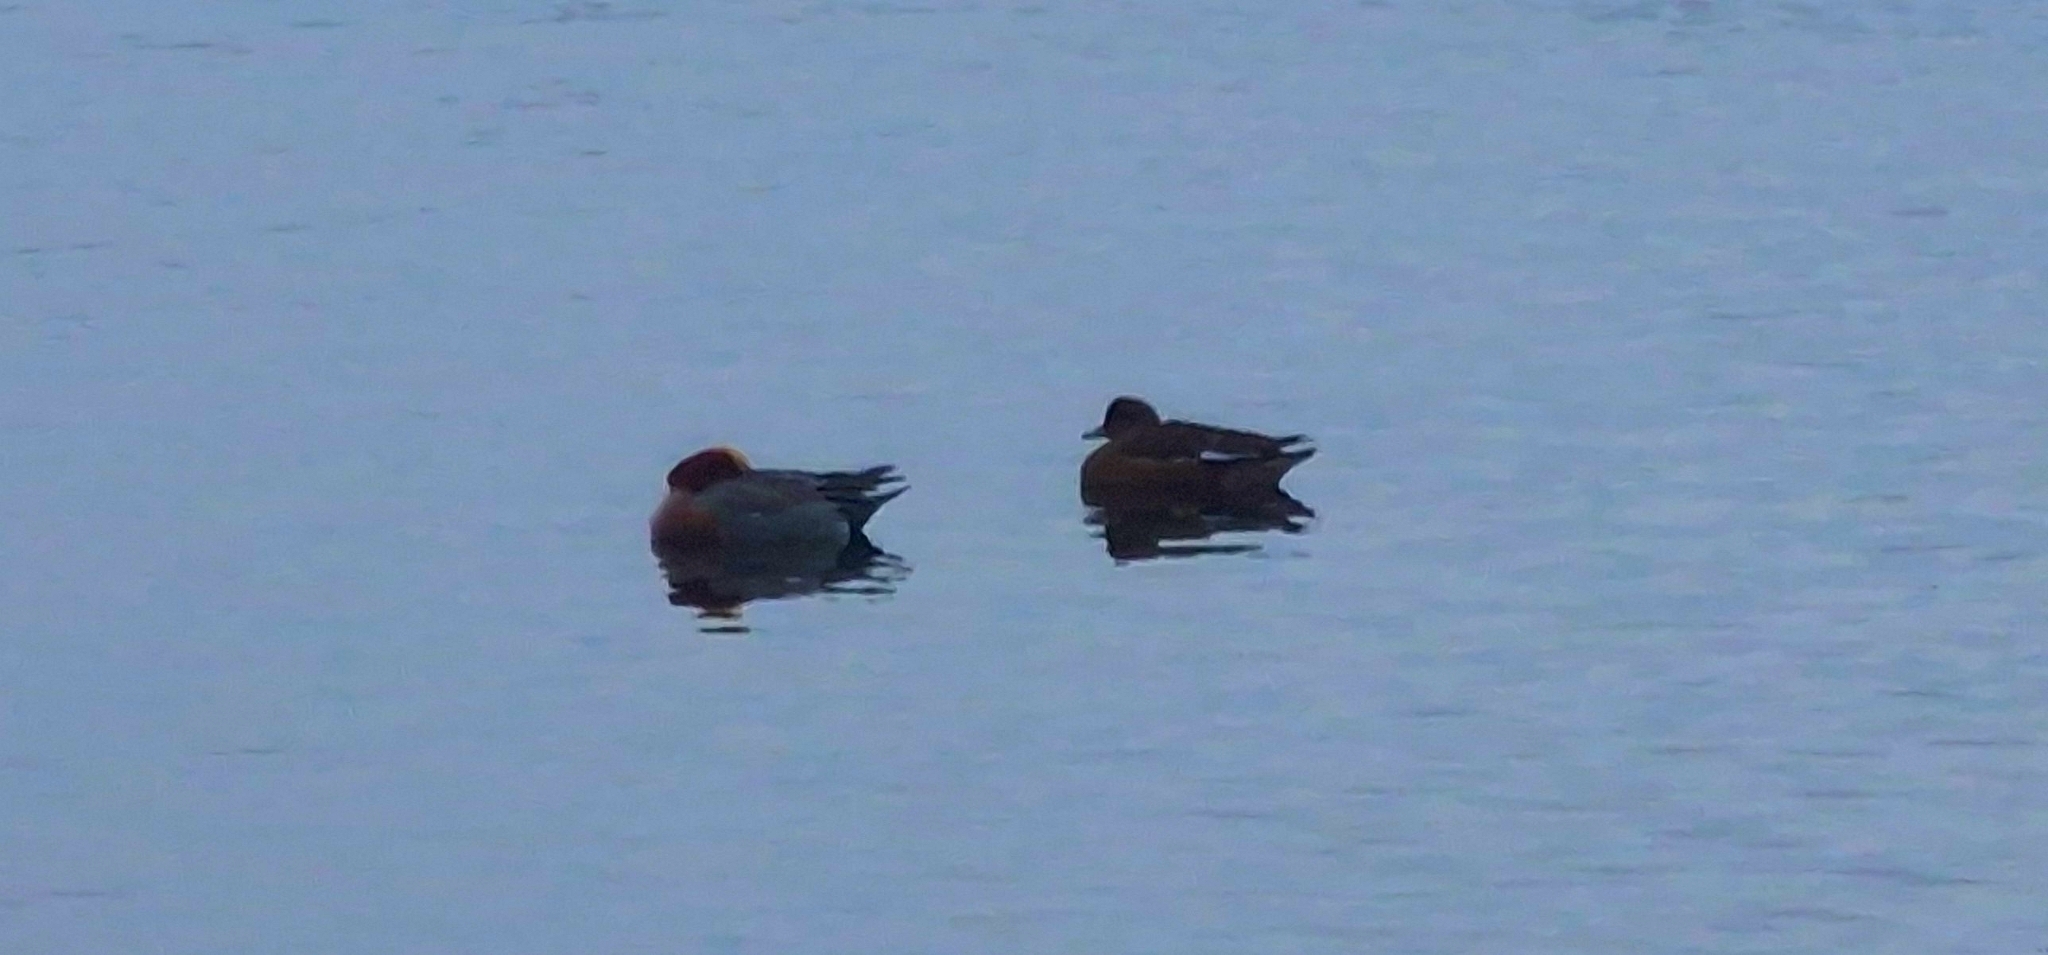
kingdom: Animalia
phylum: Chordata
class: Aves
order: Anseriformes
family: Anatidae
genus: Mareca
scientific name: Mareca penelope
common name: Eurasian wigeon
